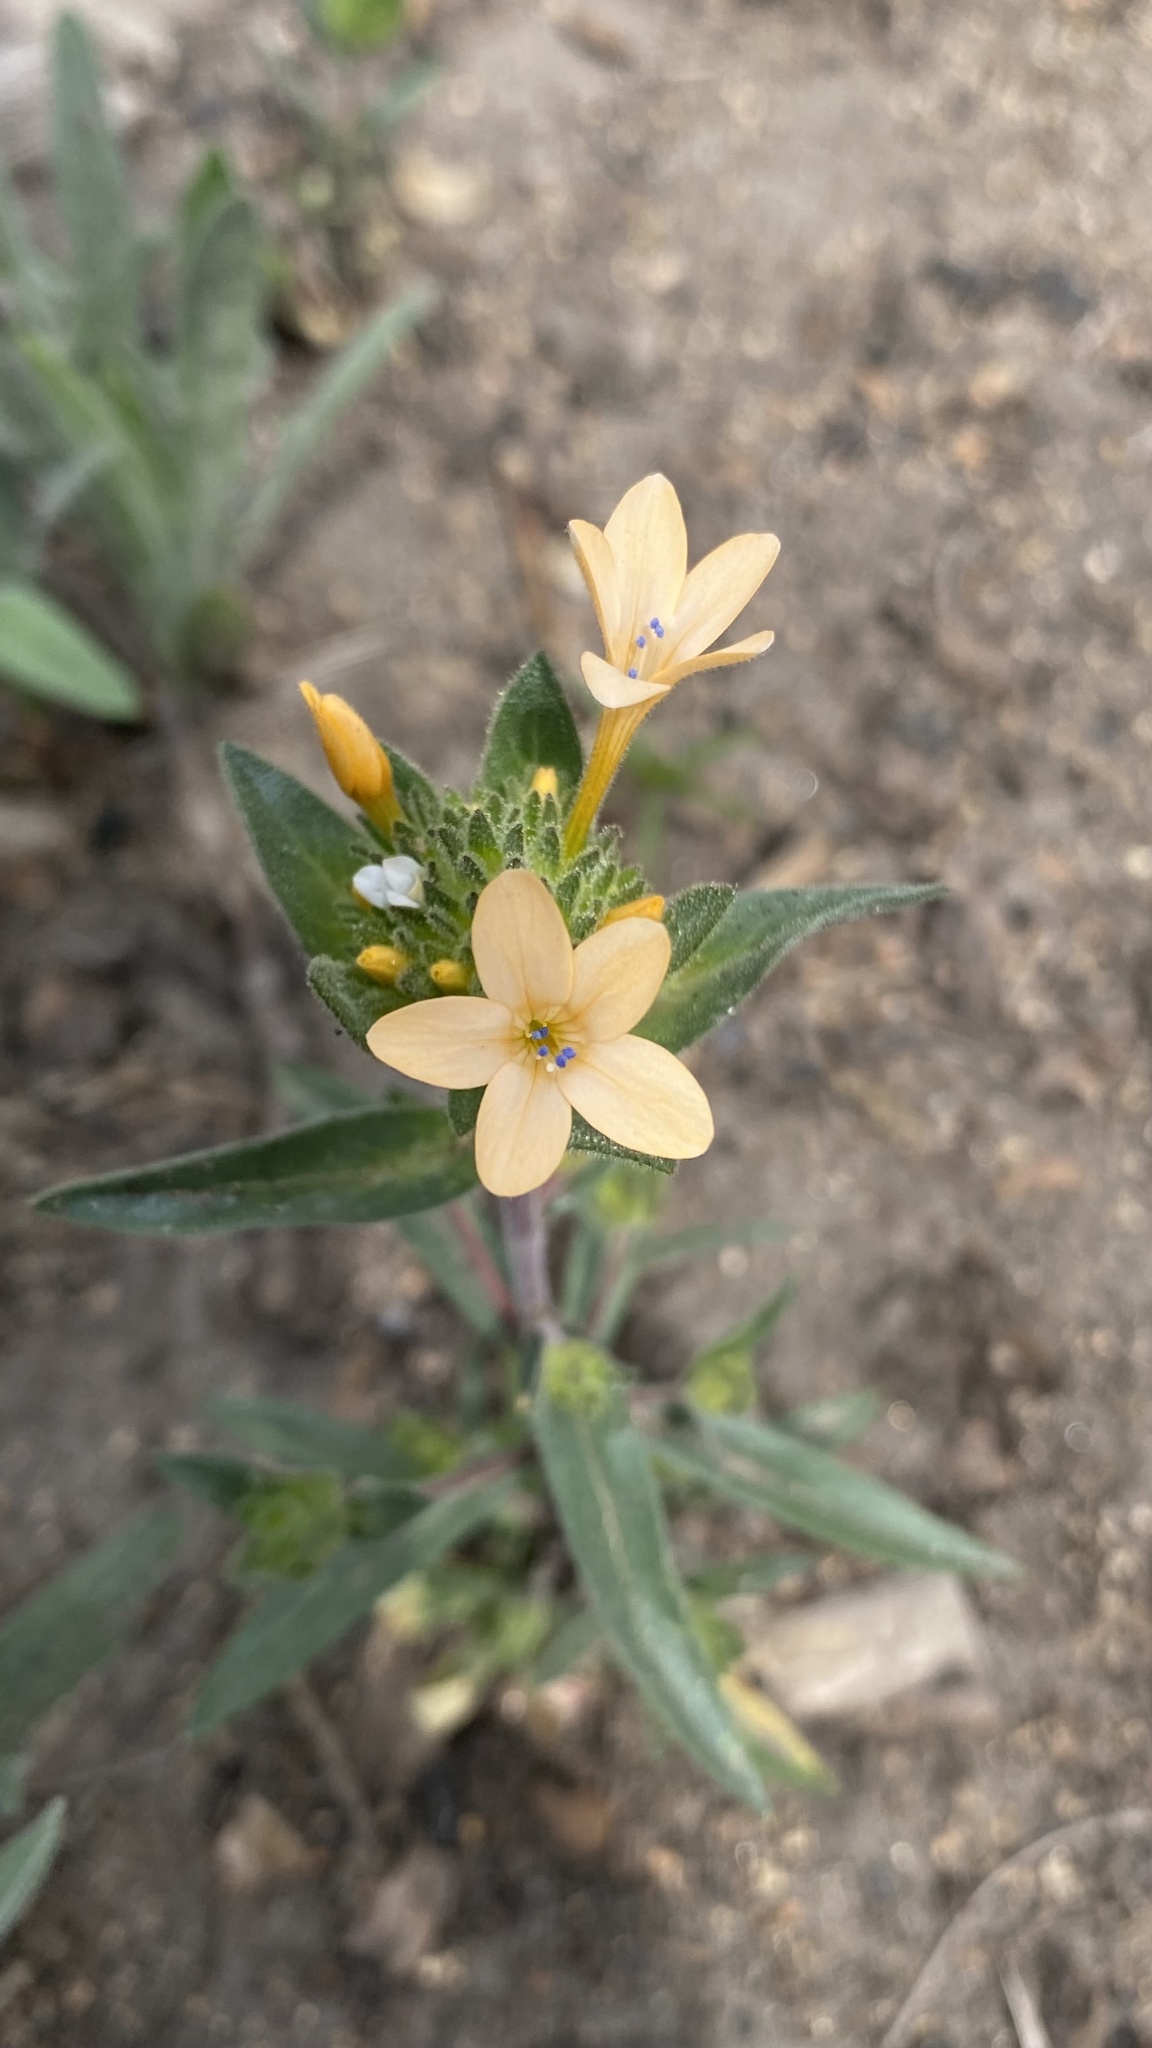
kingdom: Plantae
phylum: Tracheophyta
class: Magnoliopsida
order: Ericales
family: Polemoniaceae
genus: Collomia
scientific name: Collomia grandiflora
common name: California strawflower
